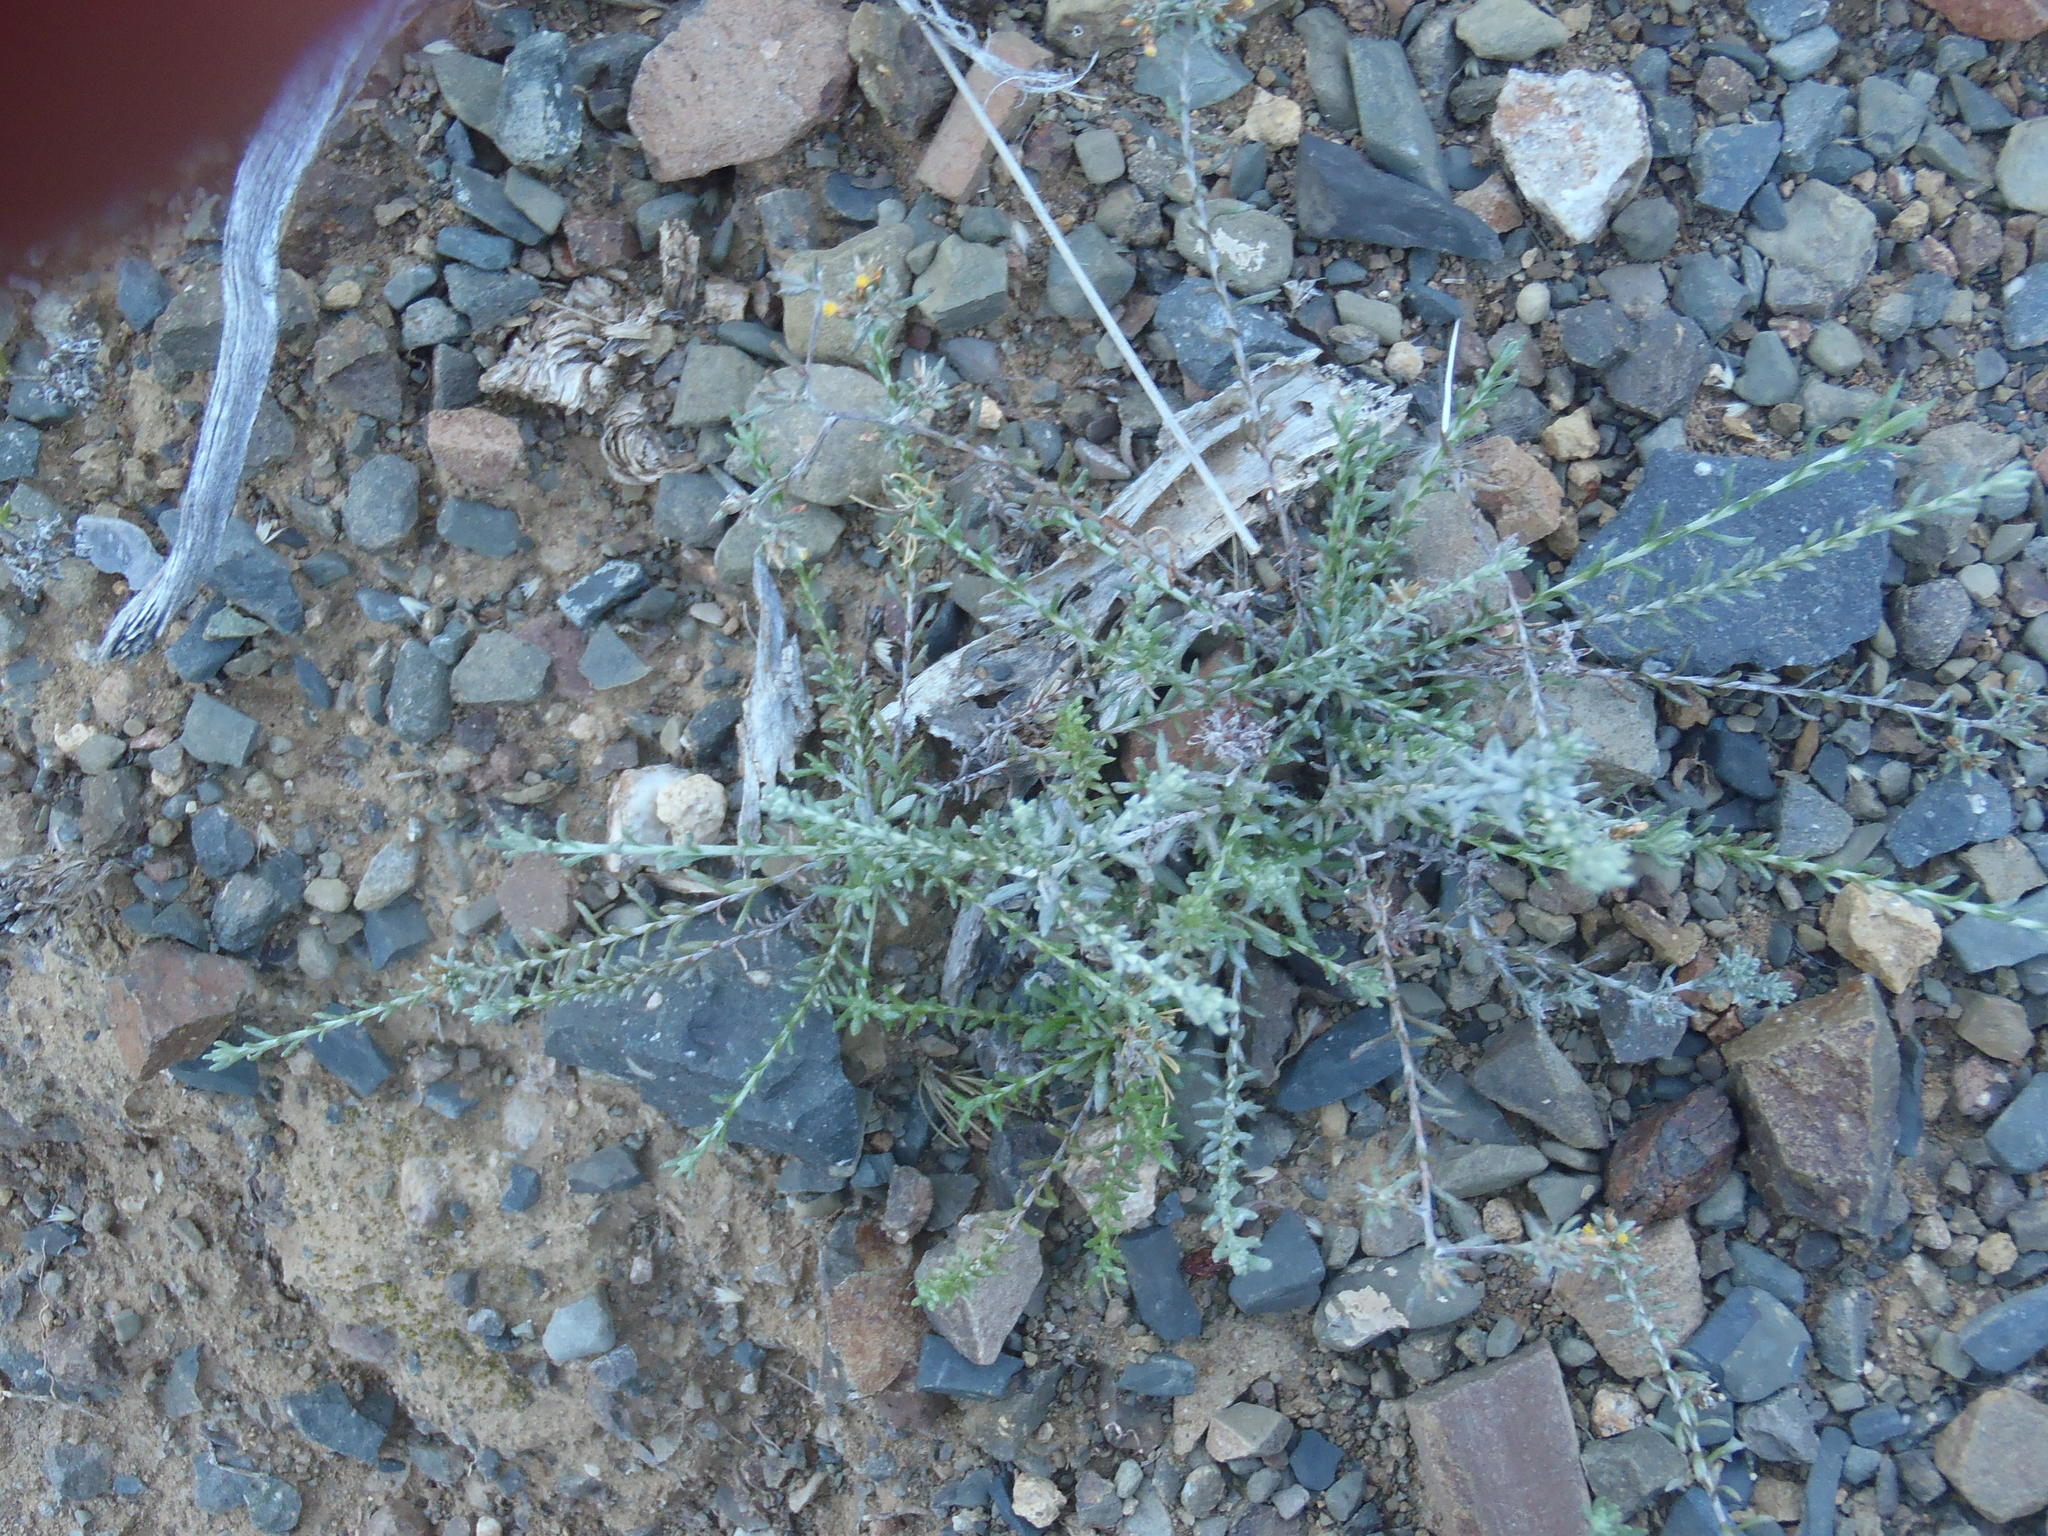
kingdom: Plantae
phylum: Tracheophyta
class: Magnoliopsida
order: Asterales
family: Asteraceae
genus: Helichrysum
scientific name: Helichrysum asperum
